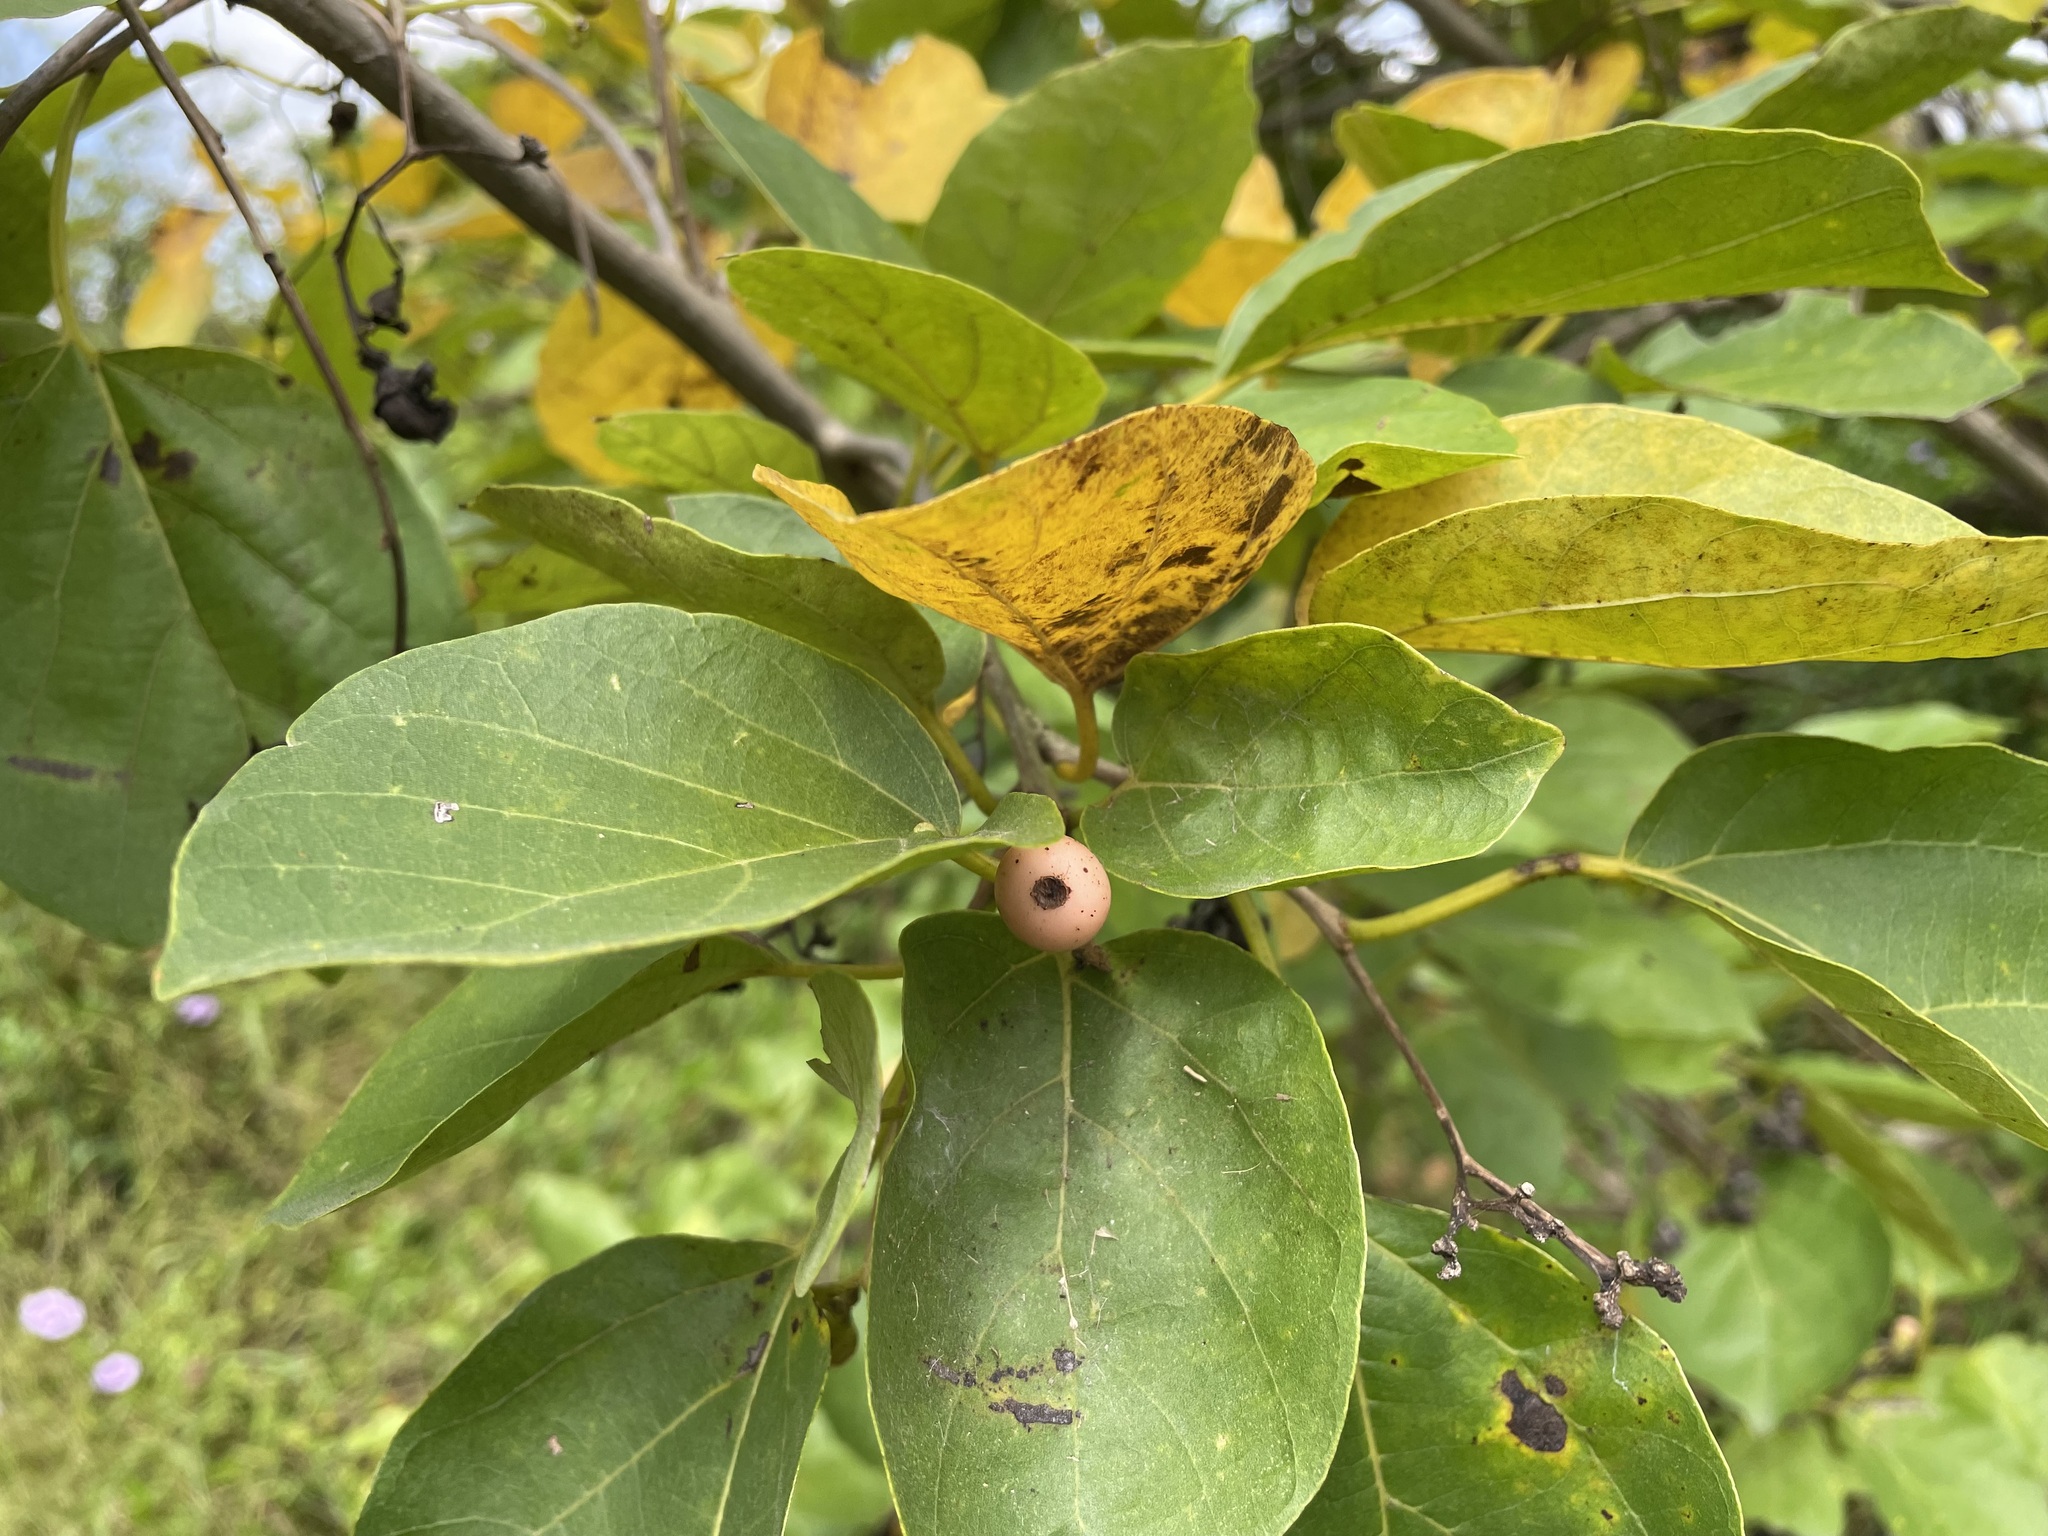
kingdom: Plantae
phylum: Tracheophyta
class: Magnoliopsida
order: Boraginales
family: Cordiaceae
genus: Cordia
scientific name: Cordia dichotoma
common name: Fragrant manjack
